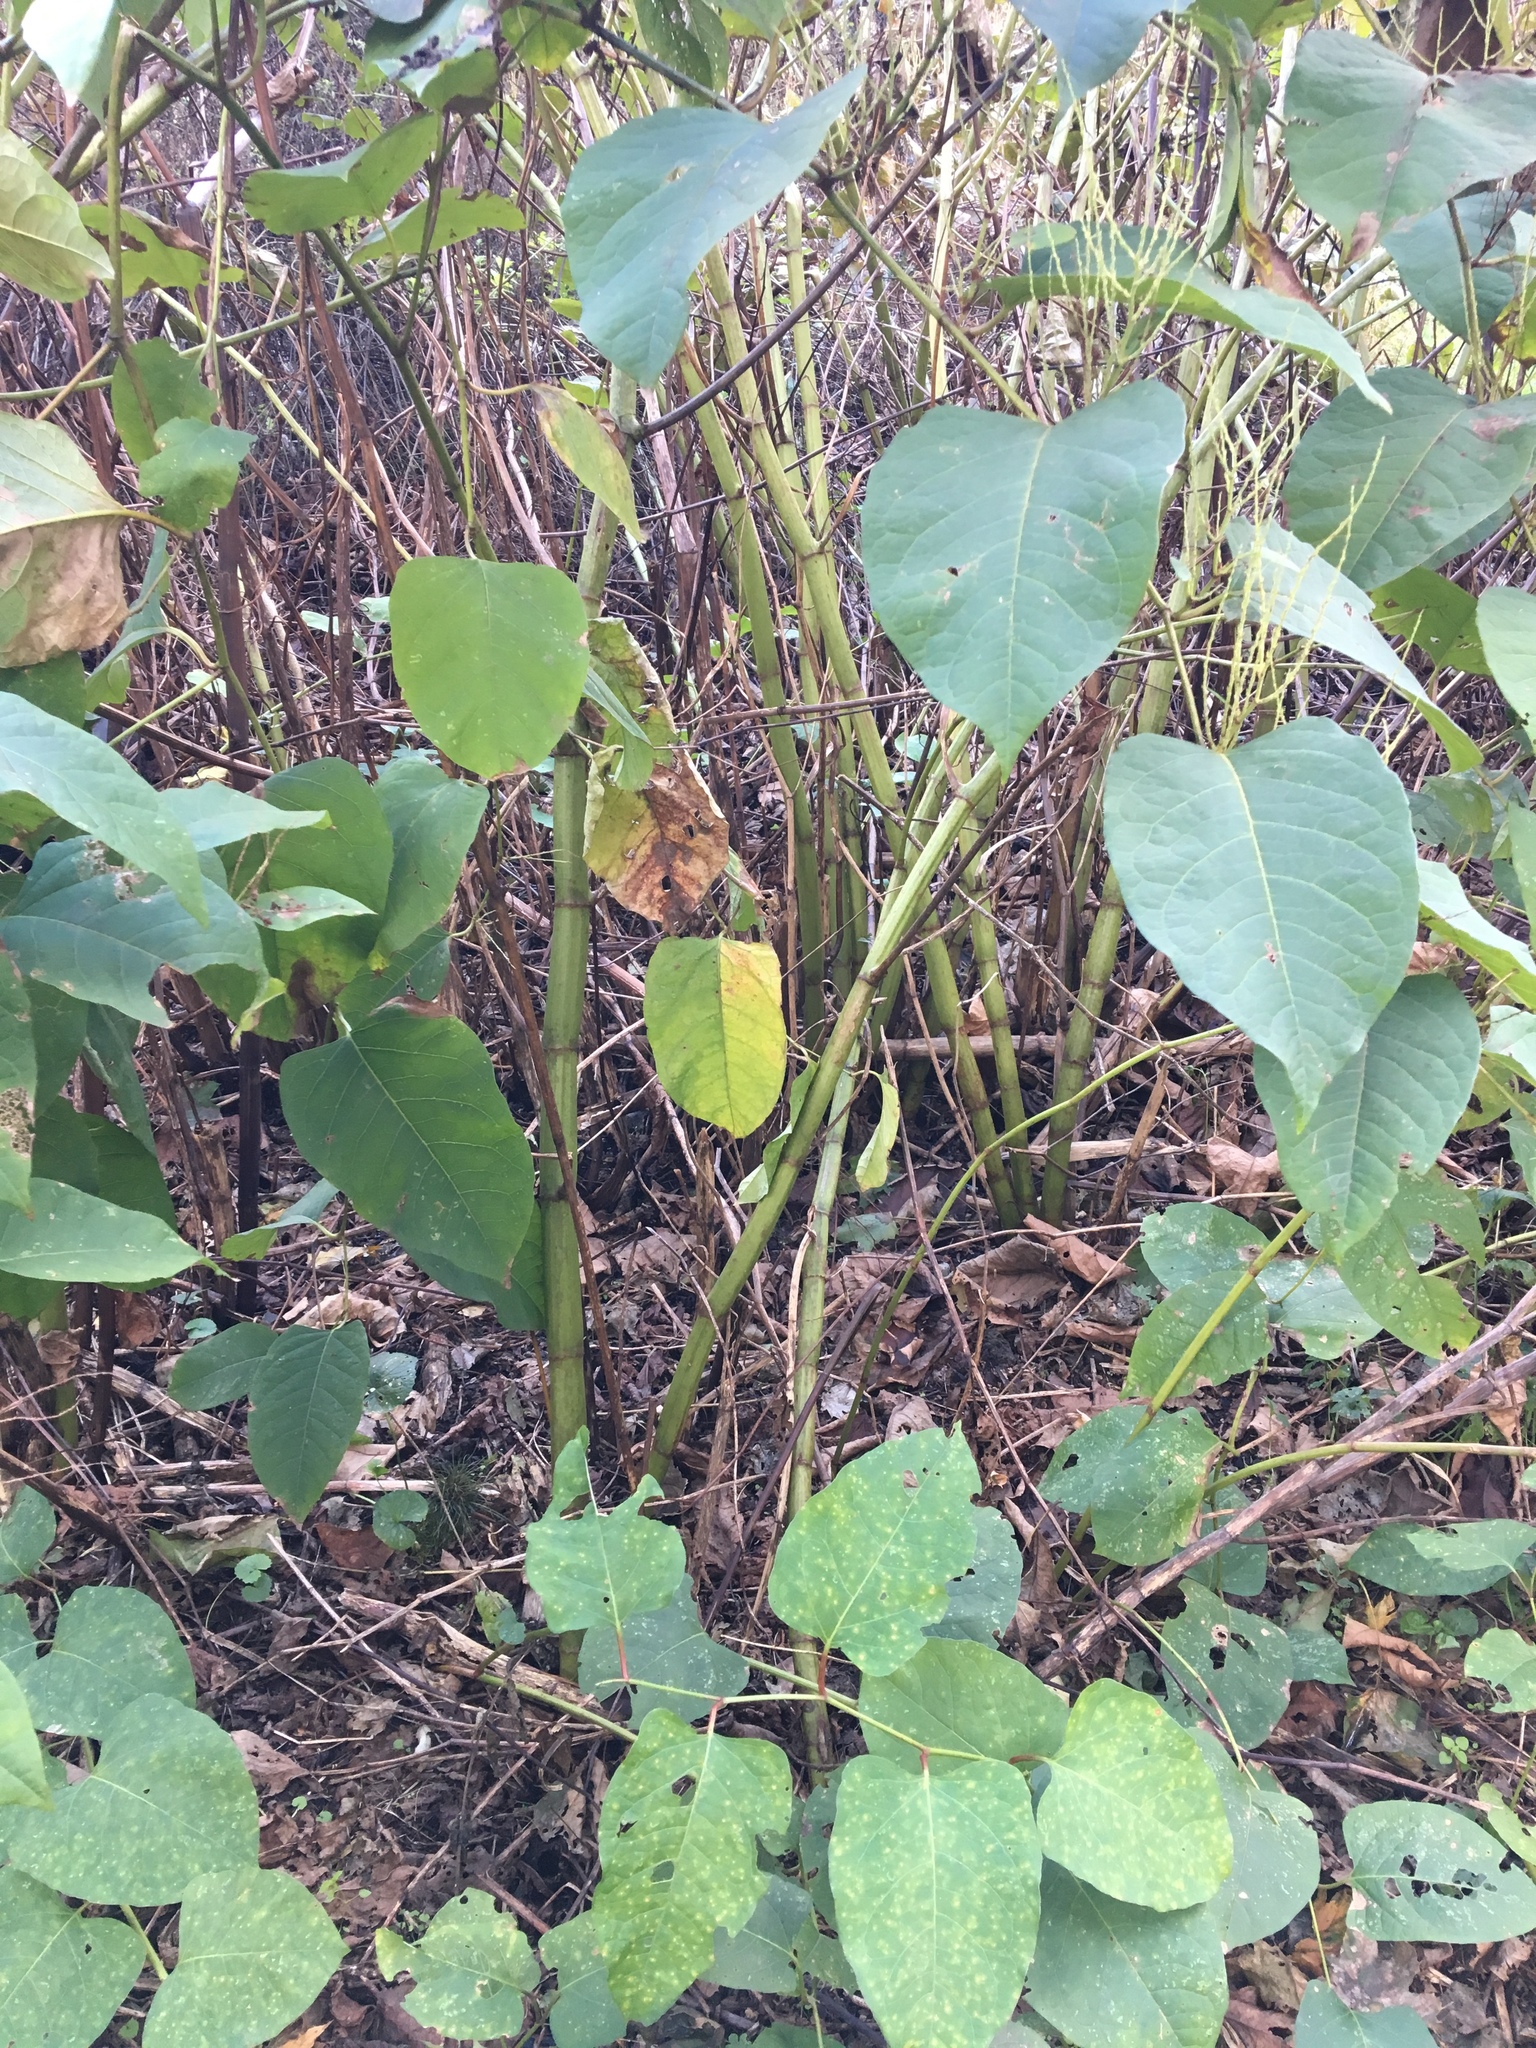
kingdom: Plantae
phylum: Tracheophyta
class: Magnoliopsida
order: Caryophyllales
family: Polygonaceae
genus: Reynoutria
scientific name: Reynoutria japonica
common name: Japanese knotweed
